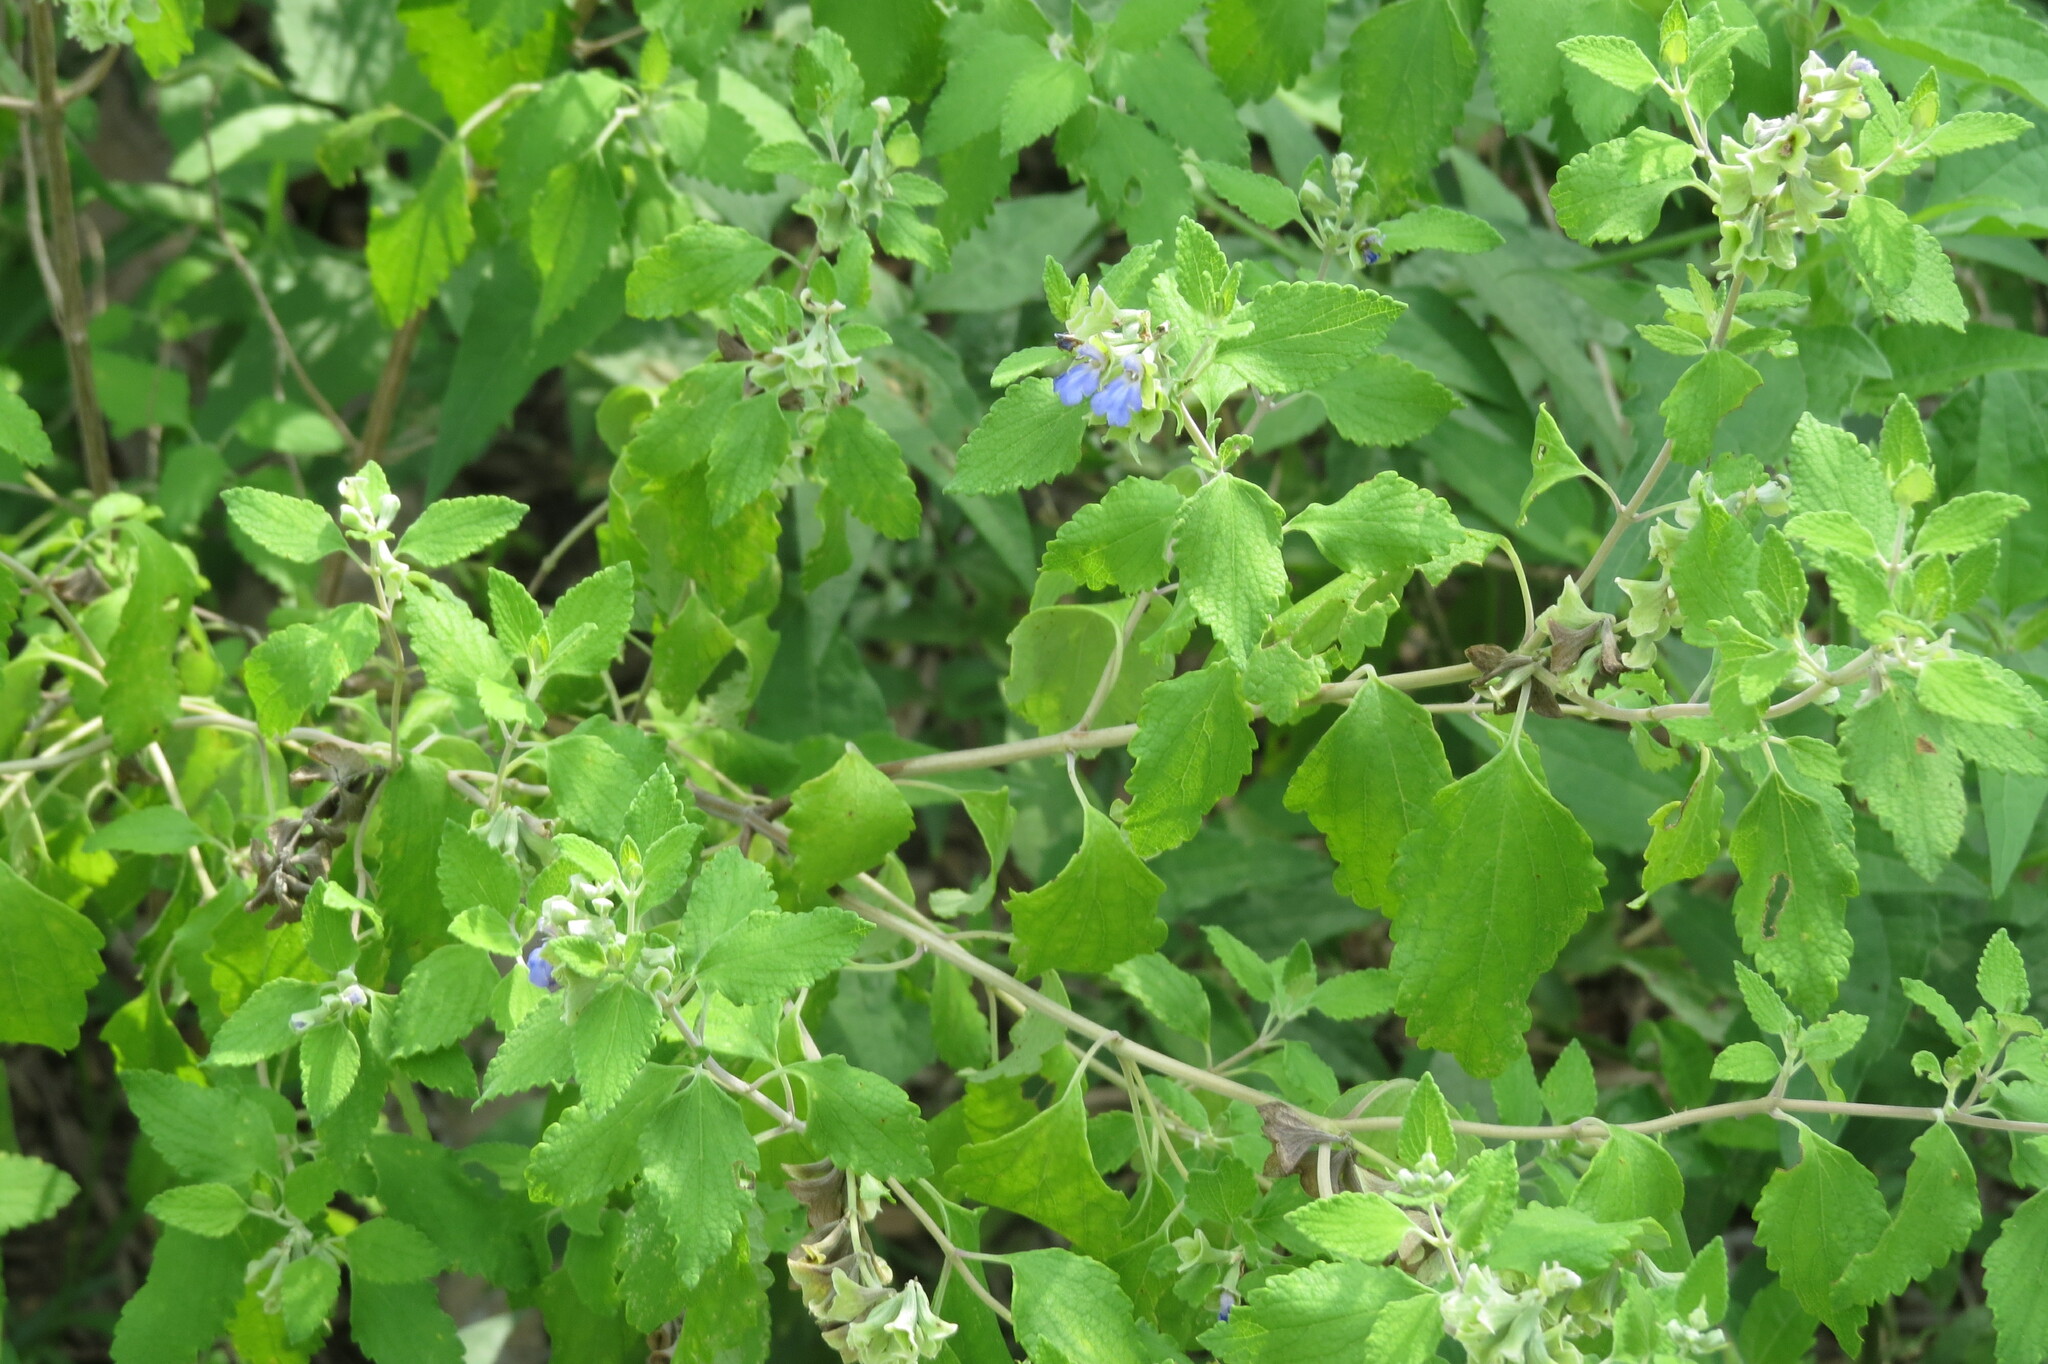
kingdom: Plantae
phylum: Tracheophyta
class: Magnoliopsida
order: Lamiales
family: Lamiaceae
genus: Salvia
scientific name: Salvia ballotiflora
